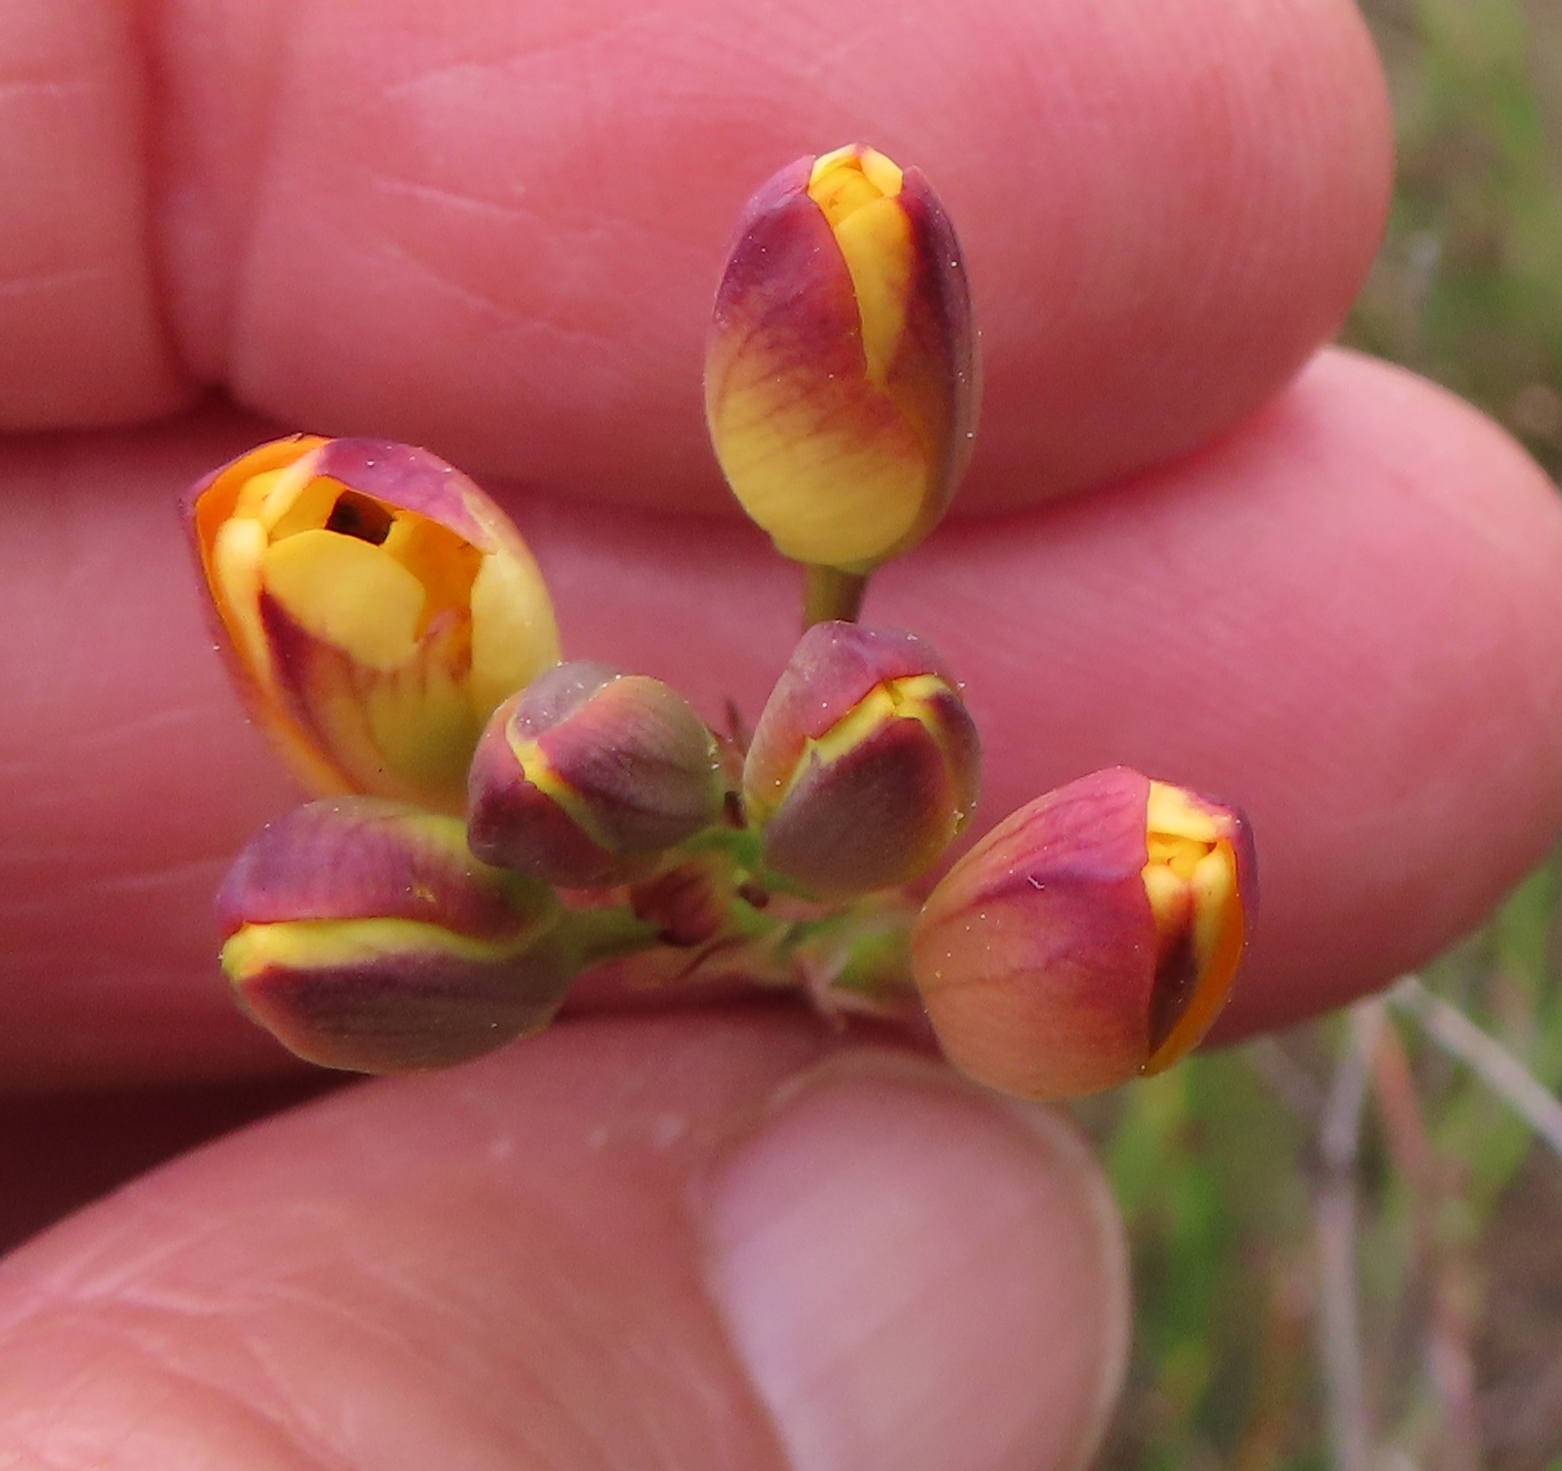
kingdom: Plantae
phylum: Tracheophyta
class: Liliopsida
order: Asparagales
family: Iridaceae
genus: Ixia
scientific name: Ixia dubia
